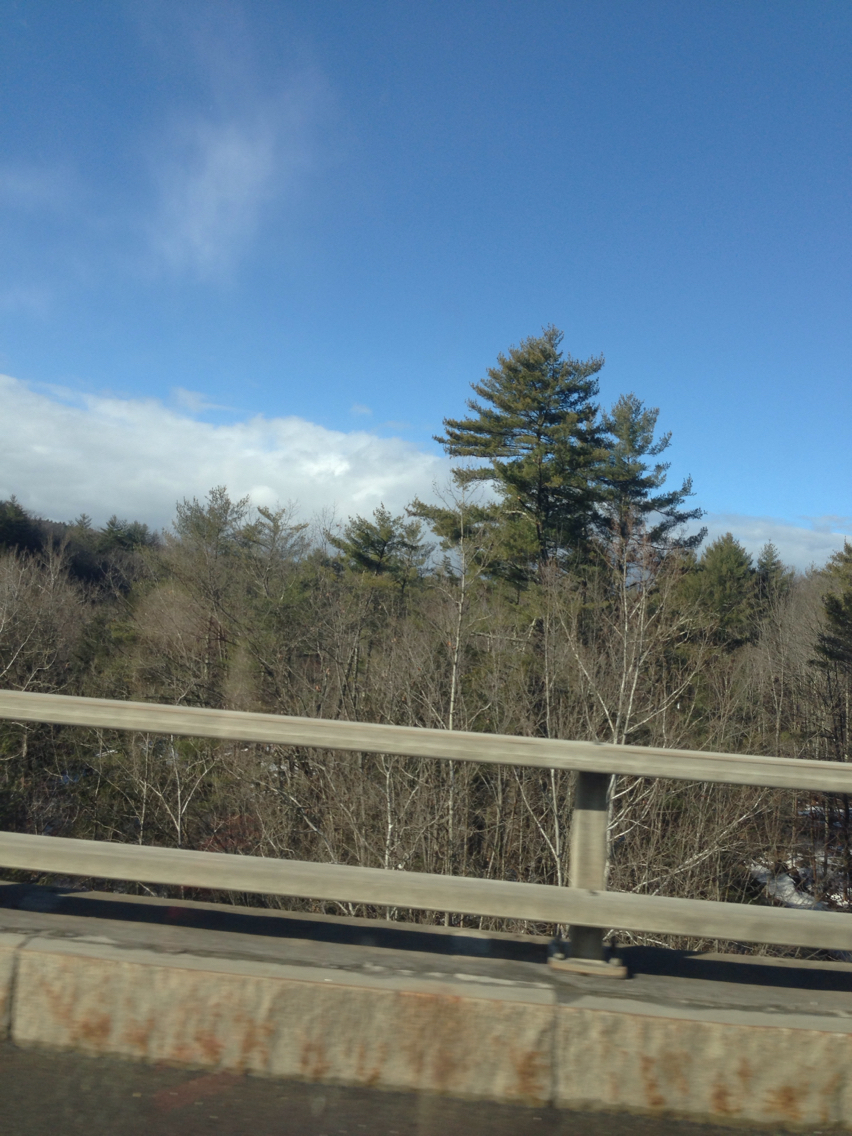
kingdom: Plantae
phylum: Tracheophyta
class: Pinopsida
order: Pinales
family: Pinaceae
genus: Pinus
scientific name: Pinus strobus
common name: Weymouth pine
